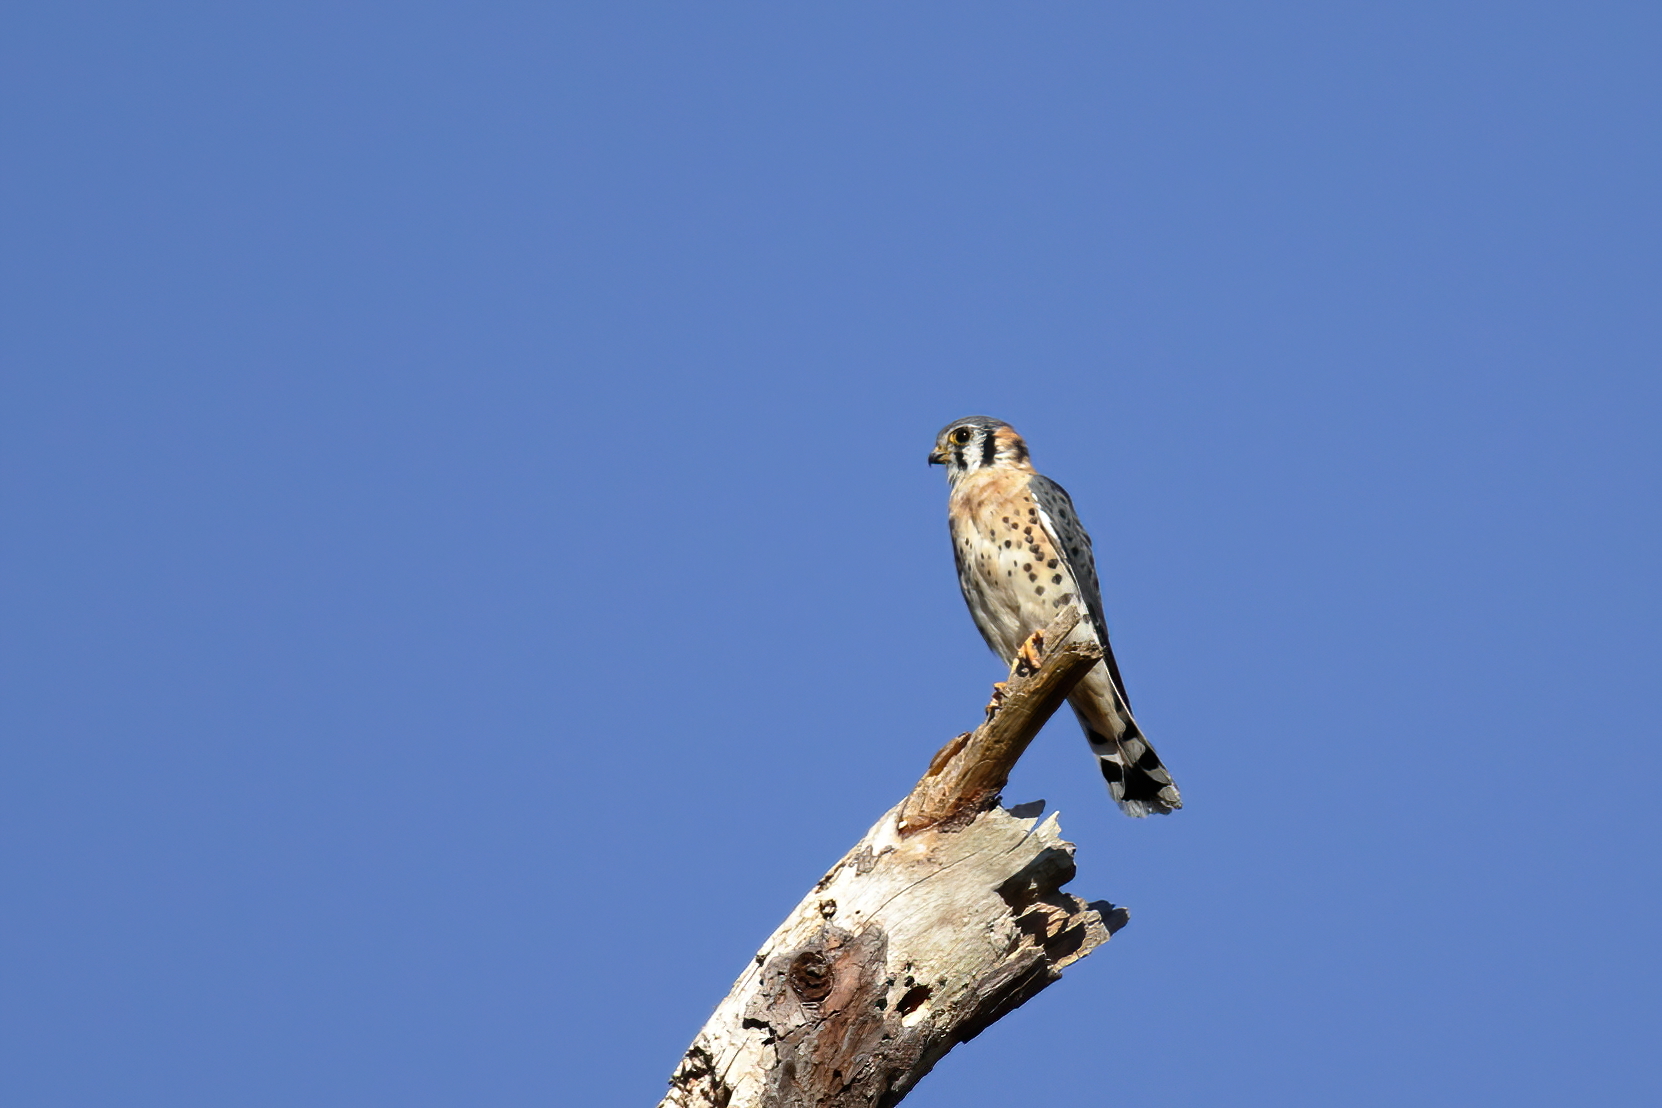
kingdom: Animalia
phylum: Chordata
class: Aves
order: Falconiformes
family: Falconidae
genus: Falco
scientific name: Falco sparverius
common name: American kestrel
